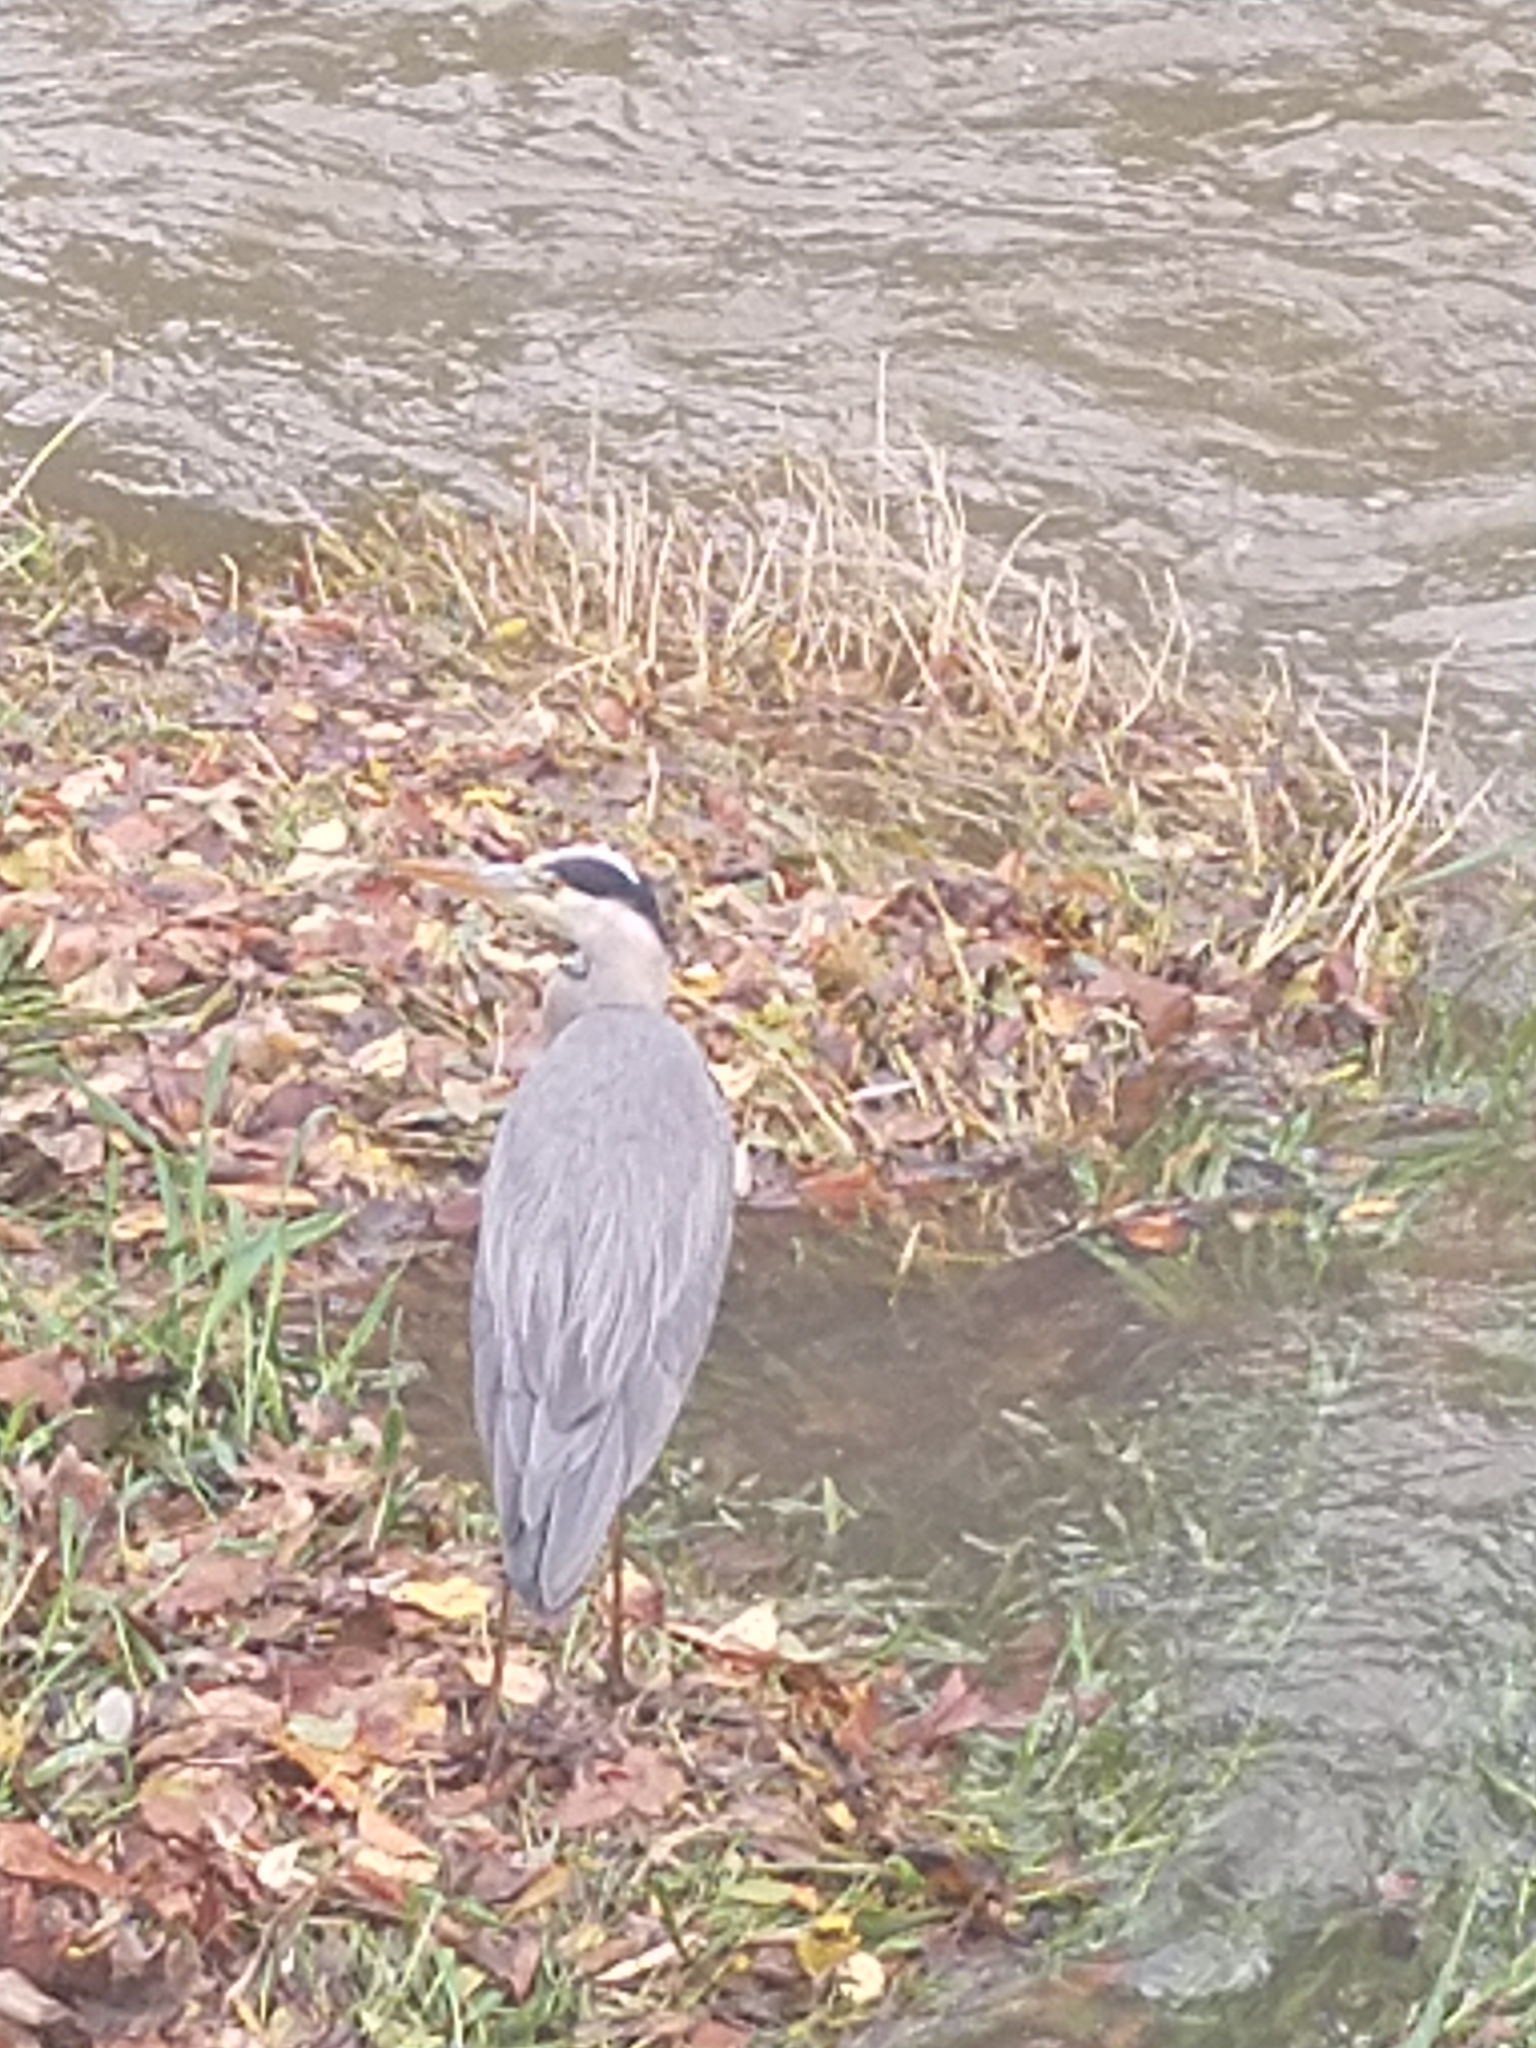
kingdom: Animalia
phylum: Chordata
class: Aves
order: Pelecaniformes
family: Ardeidae
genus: Ardea
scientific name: Ardea cinerea
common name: Grey heron
